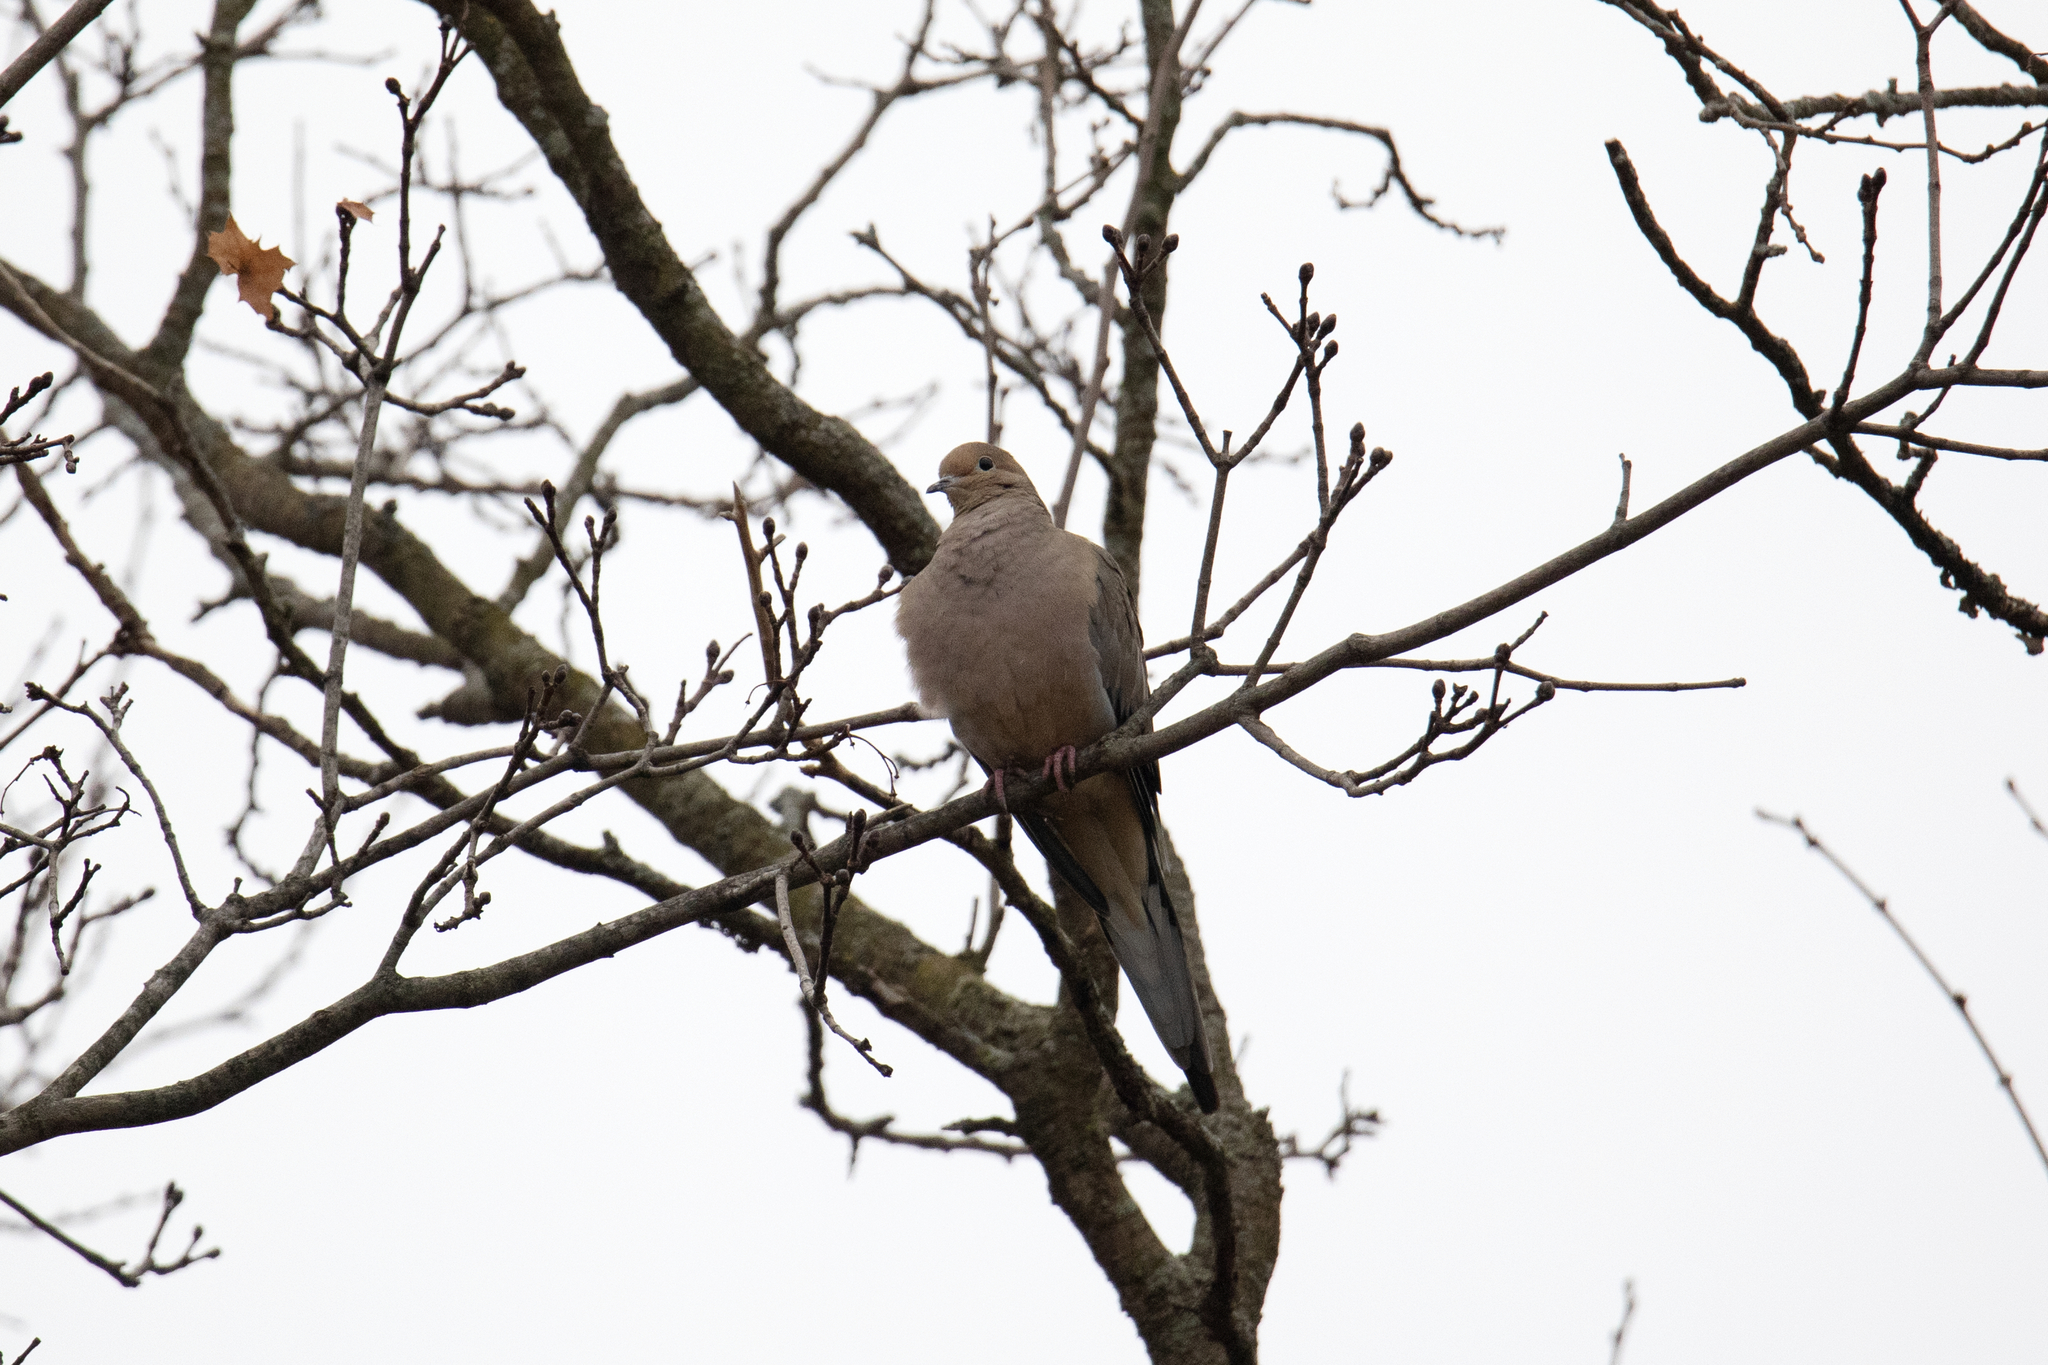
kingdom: Animalia
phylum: Chordata
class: Aves
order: Columbiformes
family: Columbidae
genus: Zenaida
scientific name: Zenaida macroura
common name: Mourning dove
